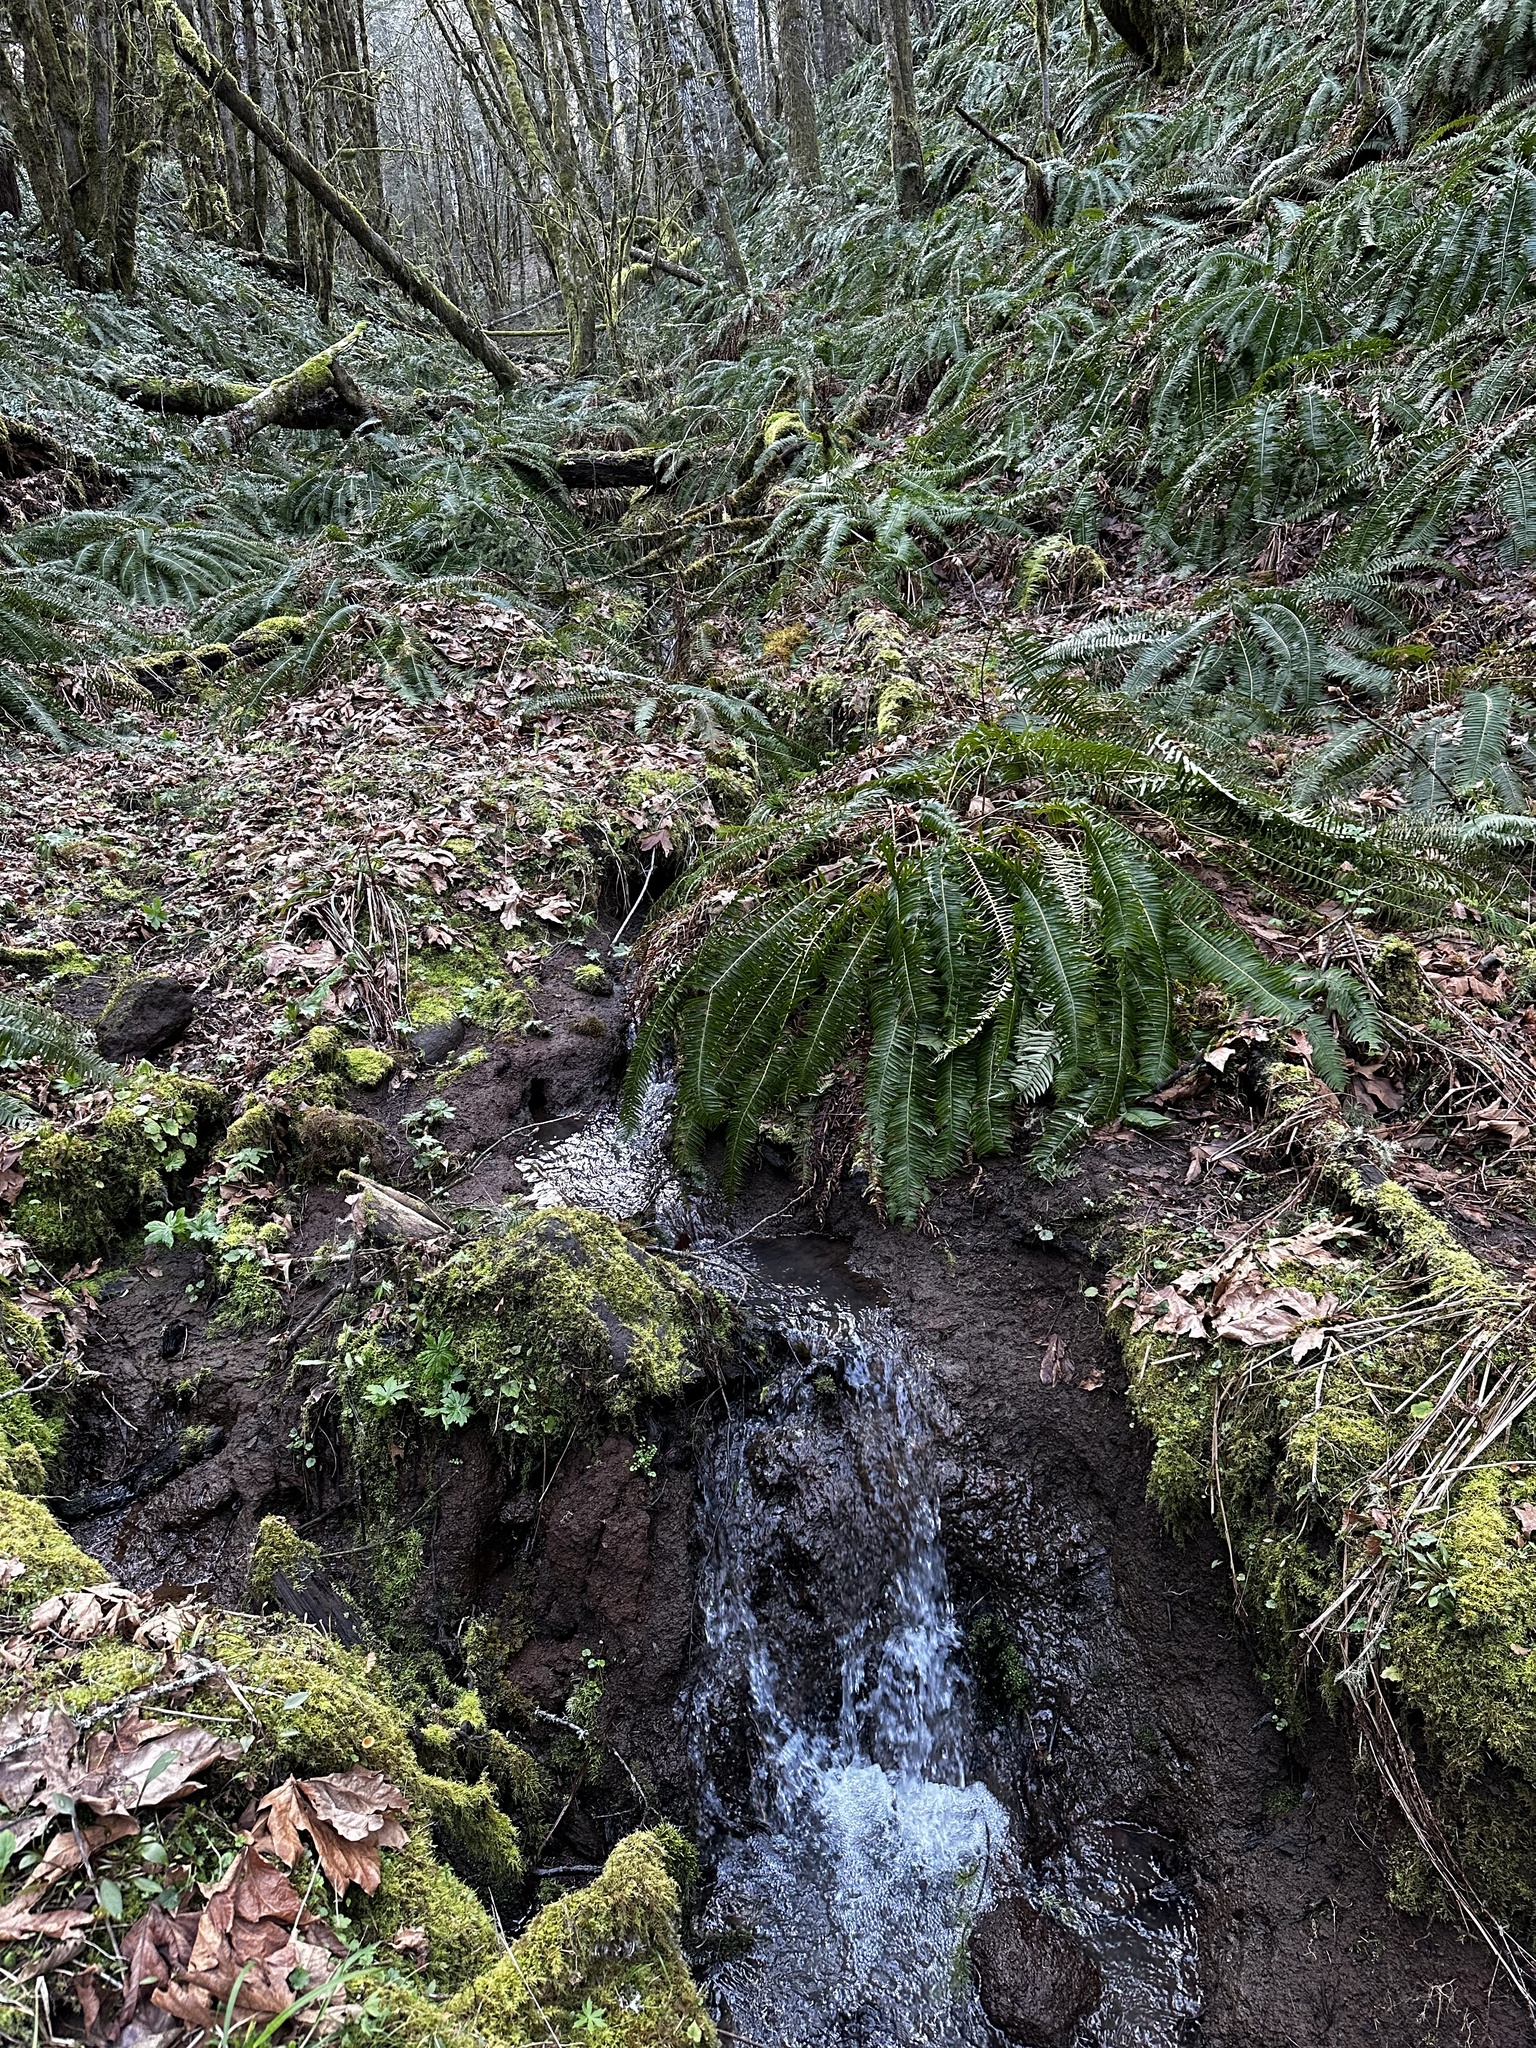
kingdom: Plantae
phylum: Tracheophyta
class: Polypodiopsida
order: Polypodiales
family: Dryopteridaceae
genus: Polystichum
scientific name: Polystichum munitum
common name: Western sword-fern
